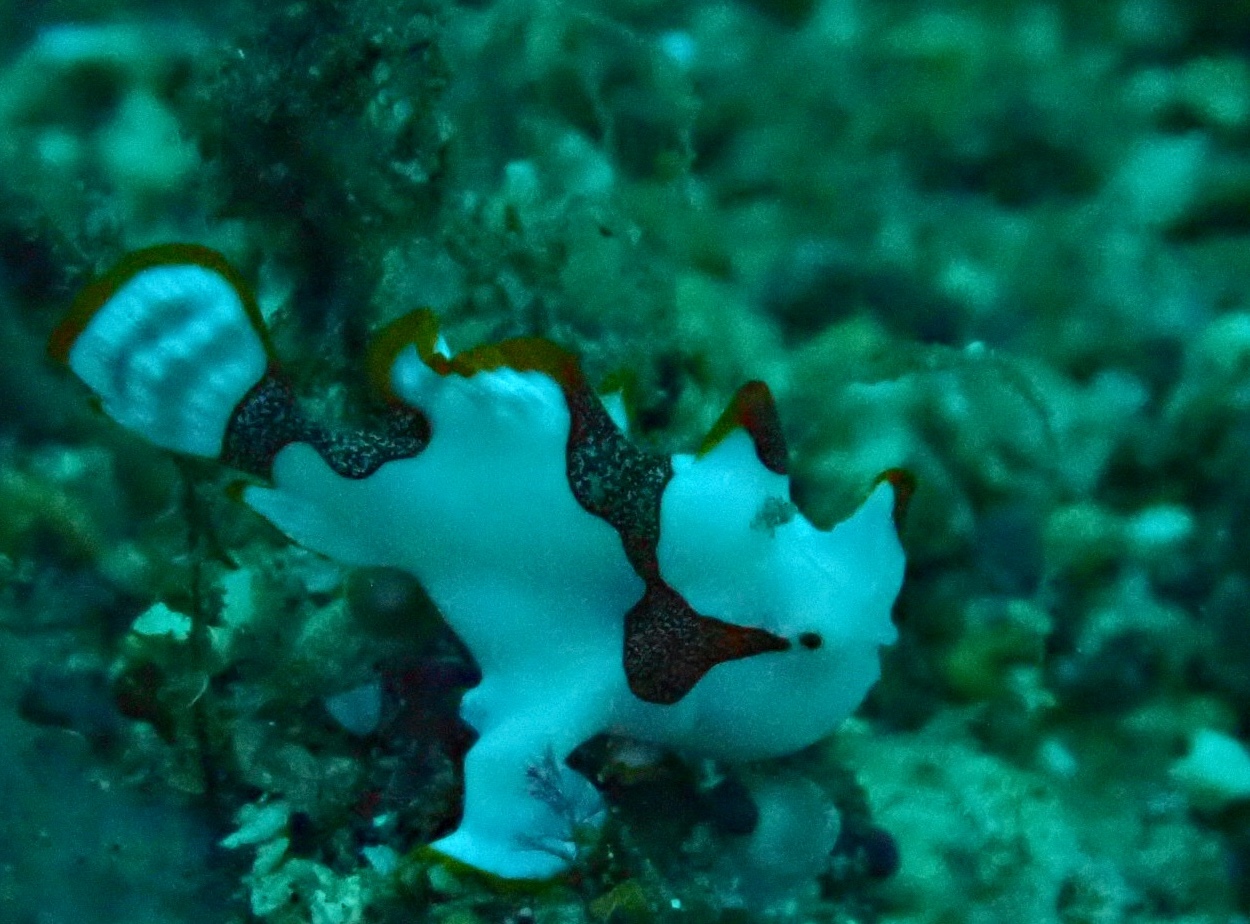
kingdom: Animalia
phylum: Chordata
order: Lophiiformes
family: Antennariidae
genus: Antennarius
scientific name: Antennarius maculatus
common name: Warty frogfish
